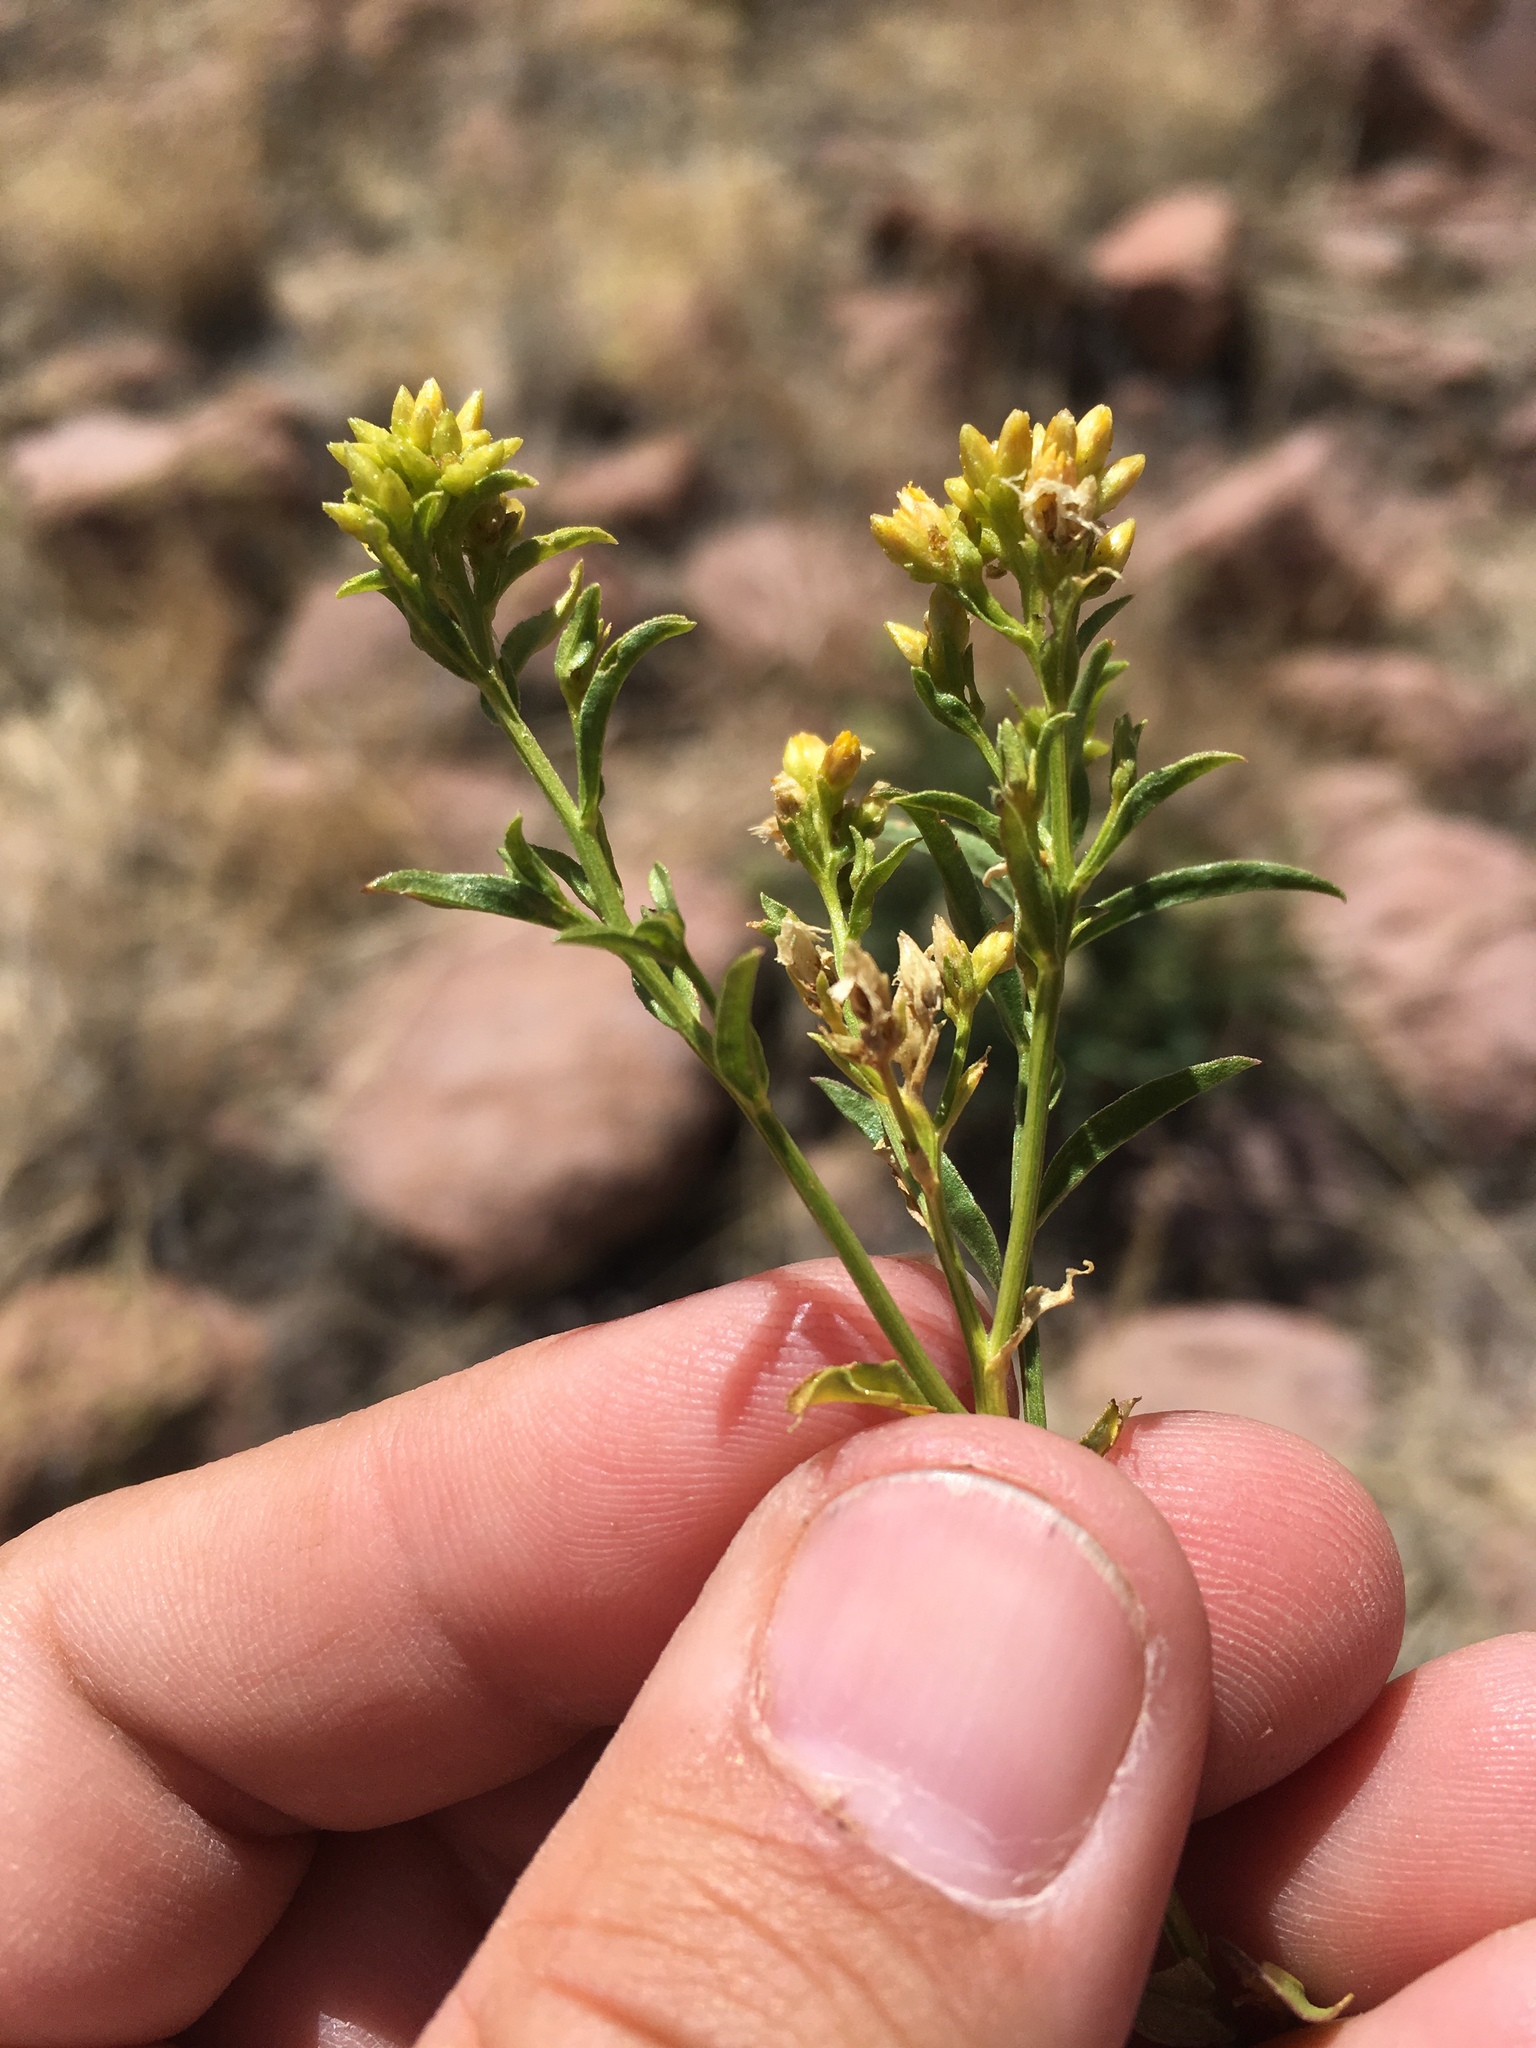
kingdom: Plantae
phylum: Tracheophyta
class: Magnoliopsida
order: Asterales
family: Asteraceae
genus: Gymnosperma
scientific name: Gymnosperma glutinosum
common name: Gumhead
